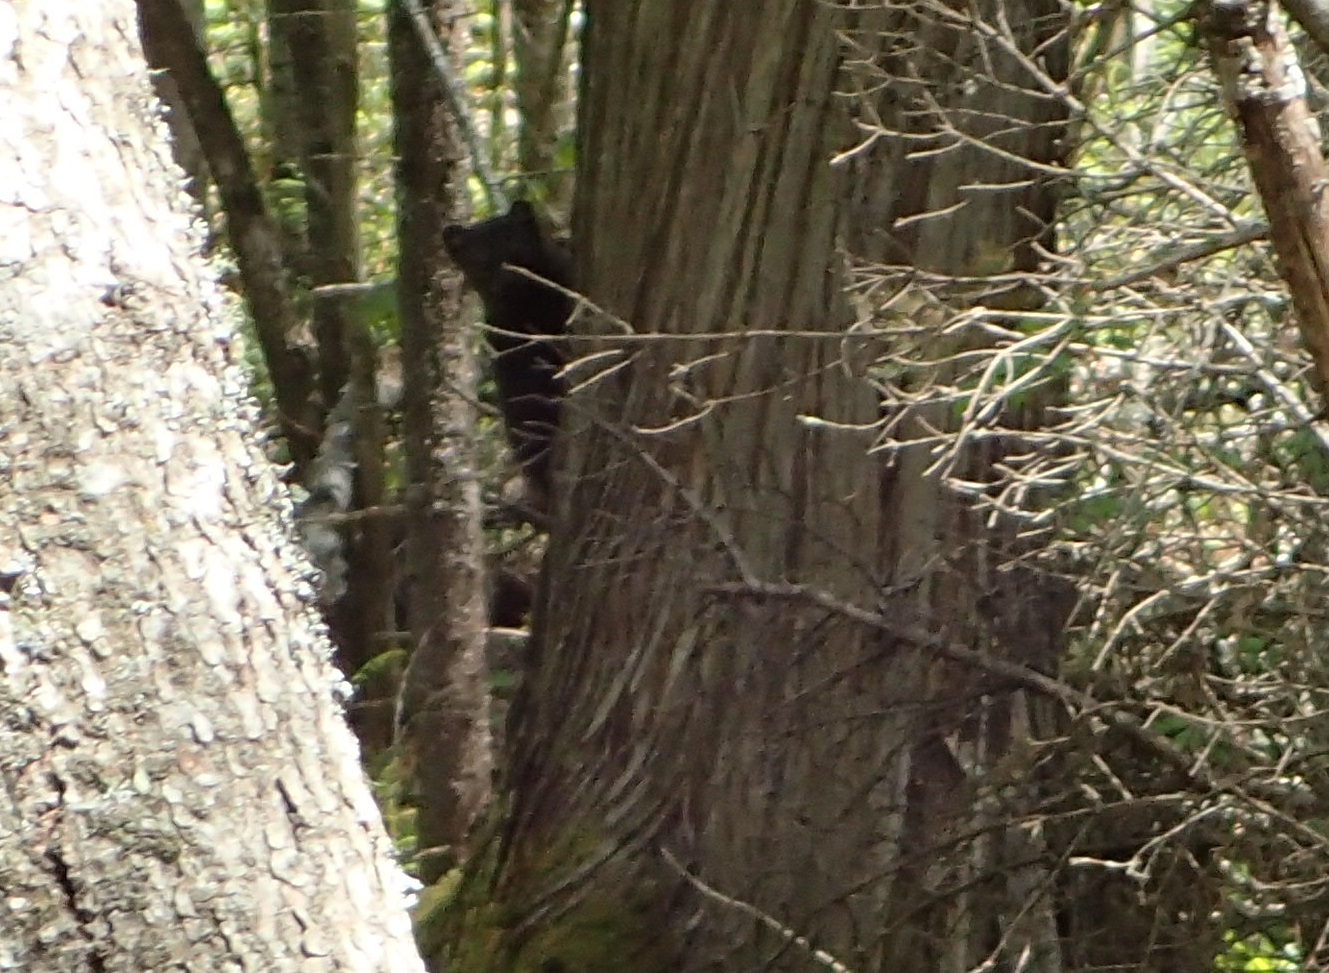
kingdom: Animalia
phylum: Chordata
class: Mammalia
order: Carnivora
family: Mustelidae
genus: Pekania
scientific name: Pekania pennanti
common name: Fisher
